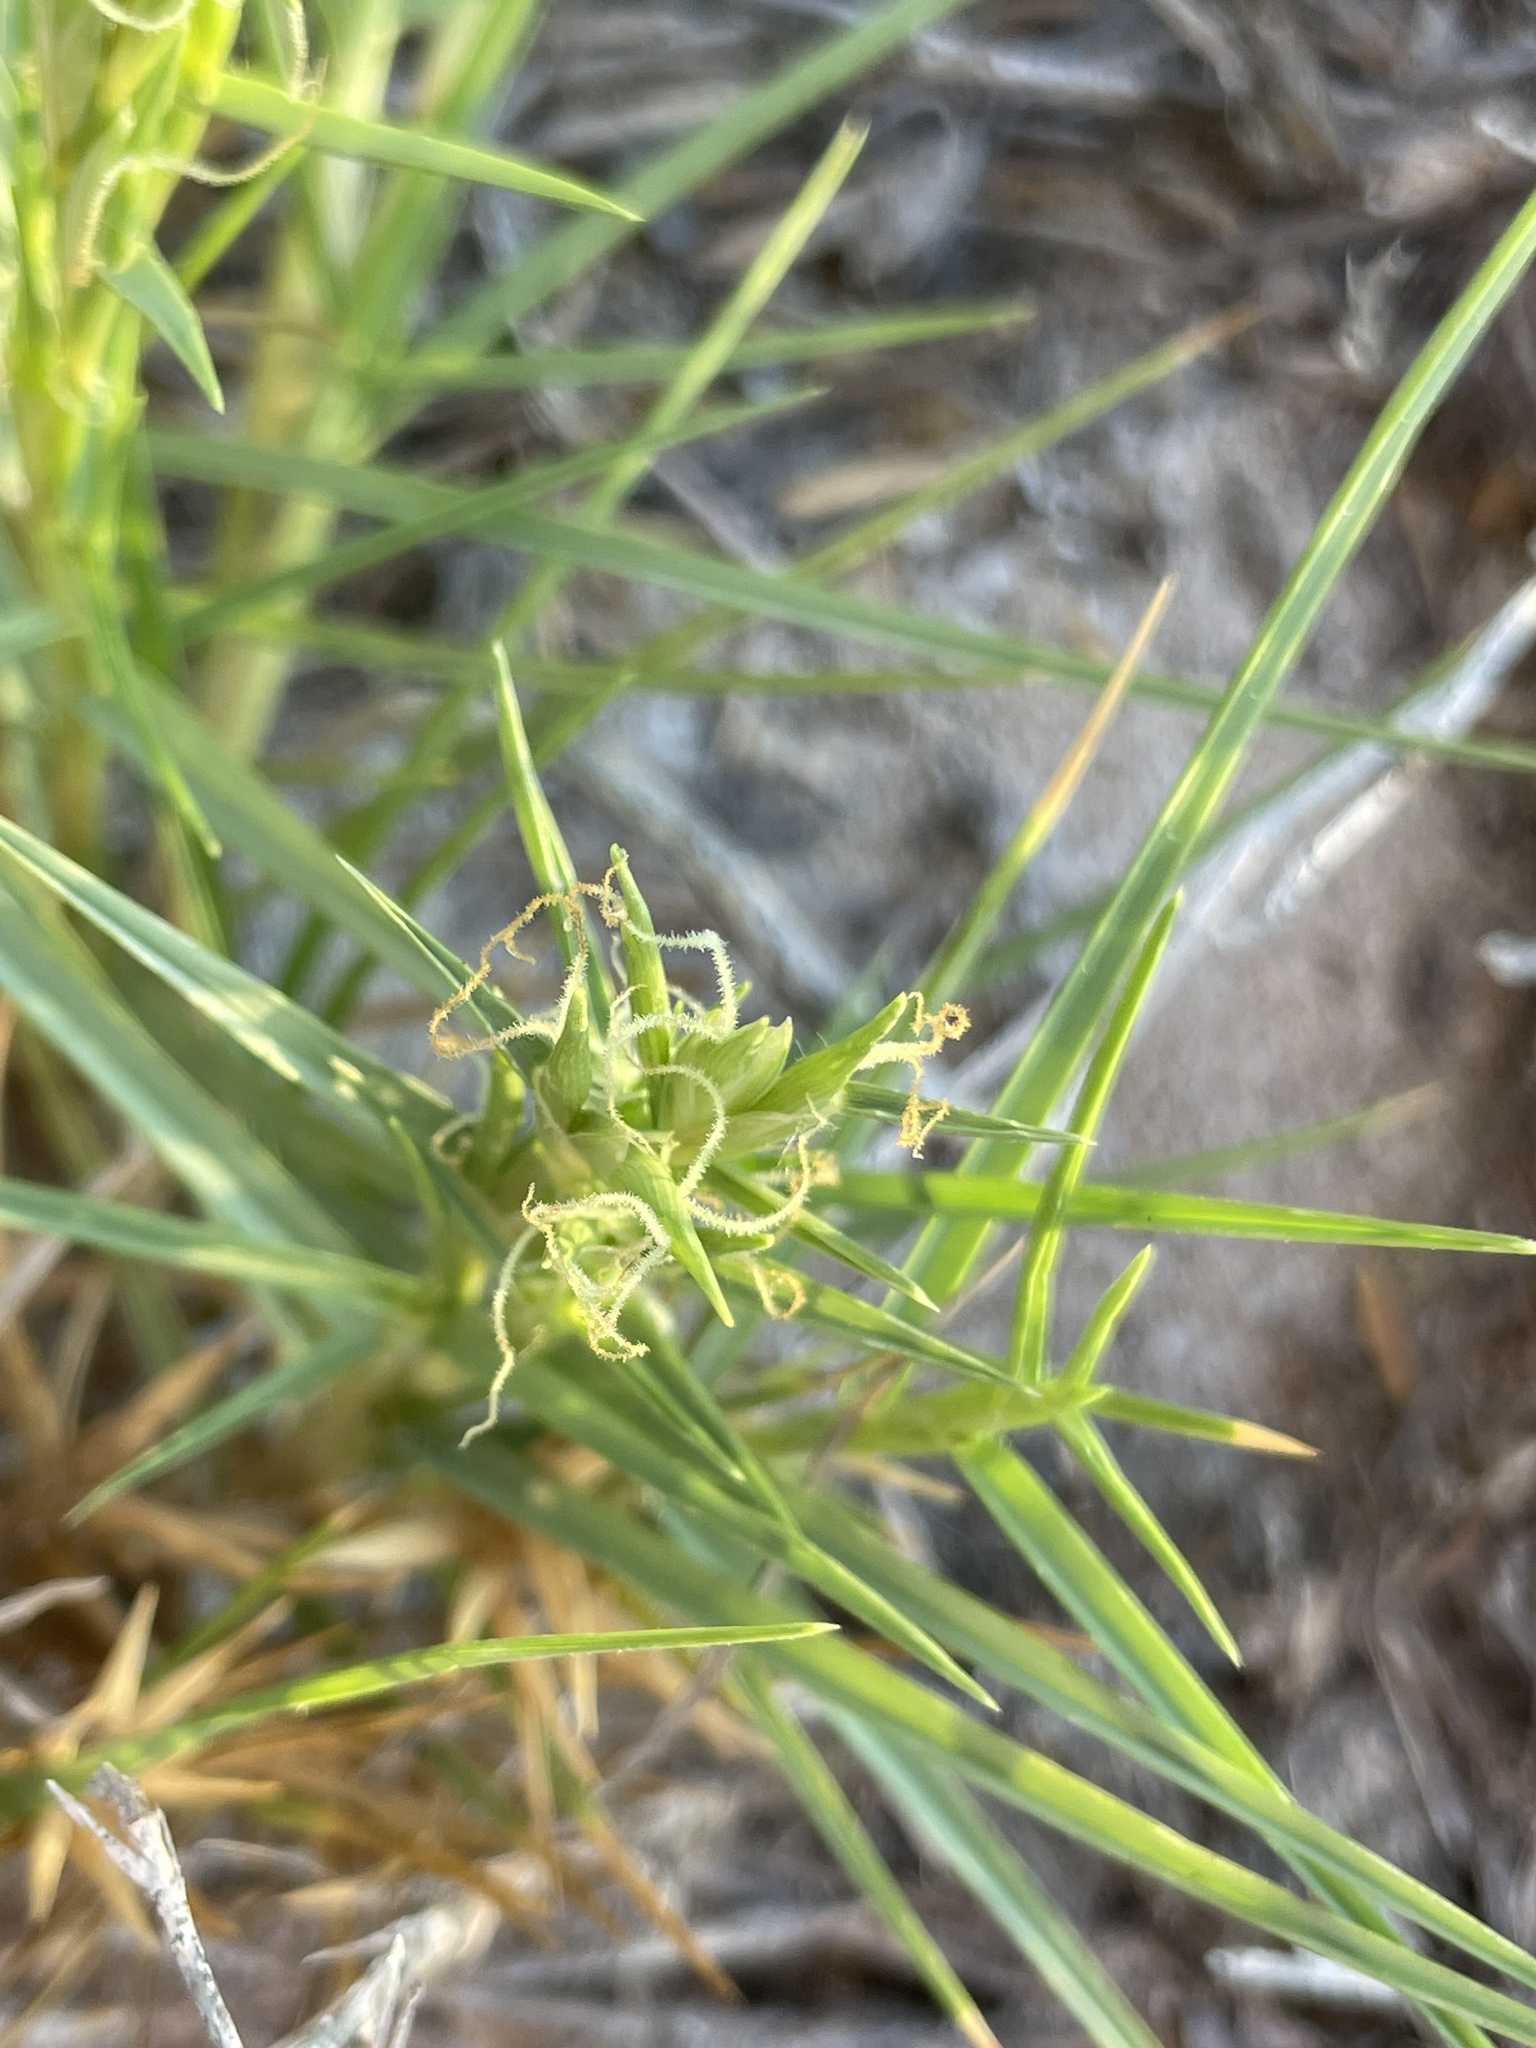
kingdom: Plantae
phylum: Tracheophyta
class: Liliopsida
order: Poales
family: Poaceae
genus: Jouvea
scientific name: Jouvea pilosa
